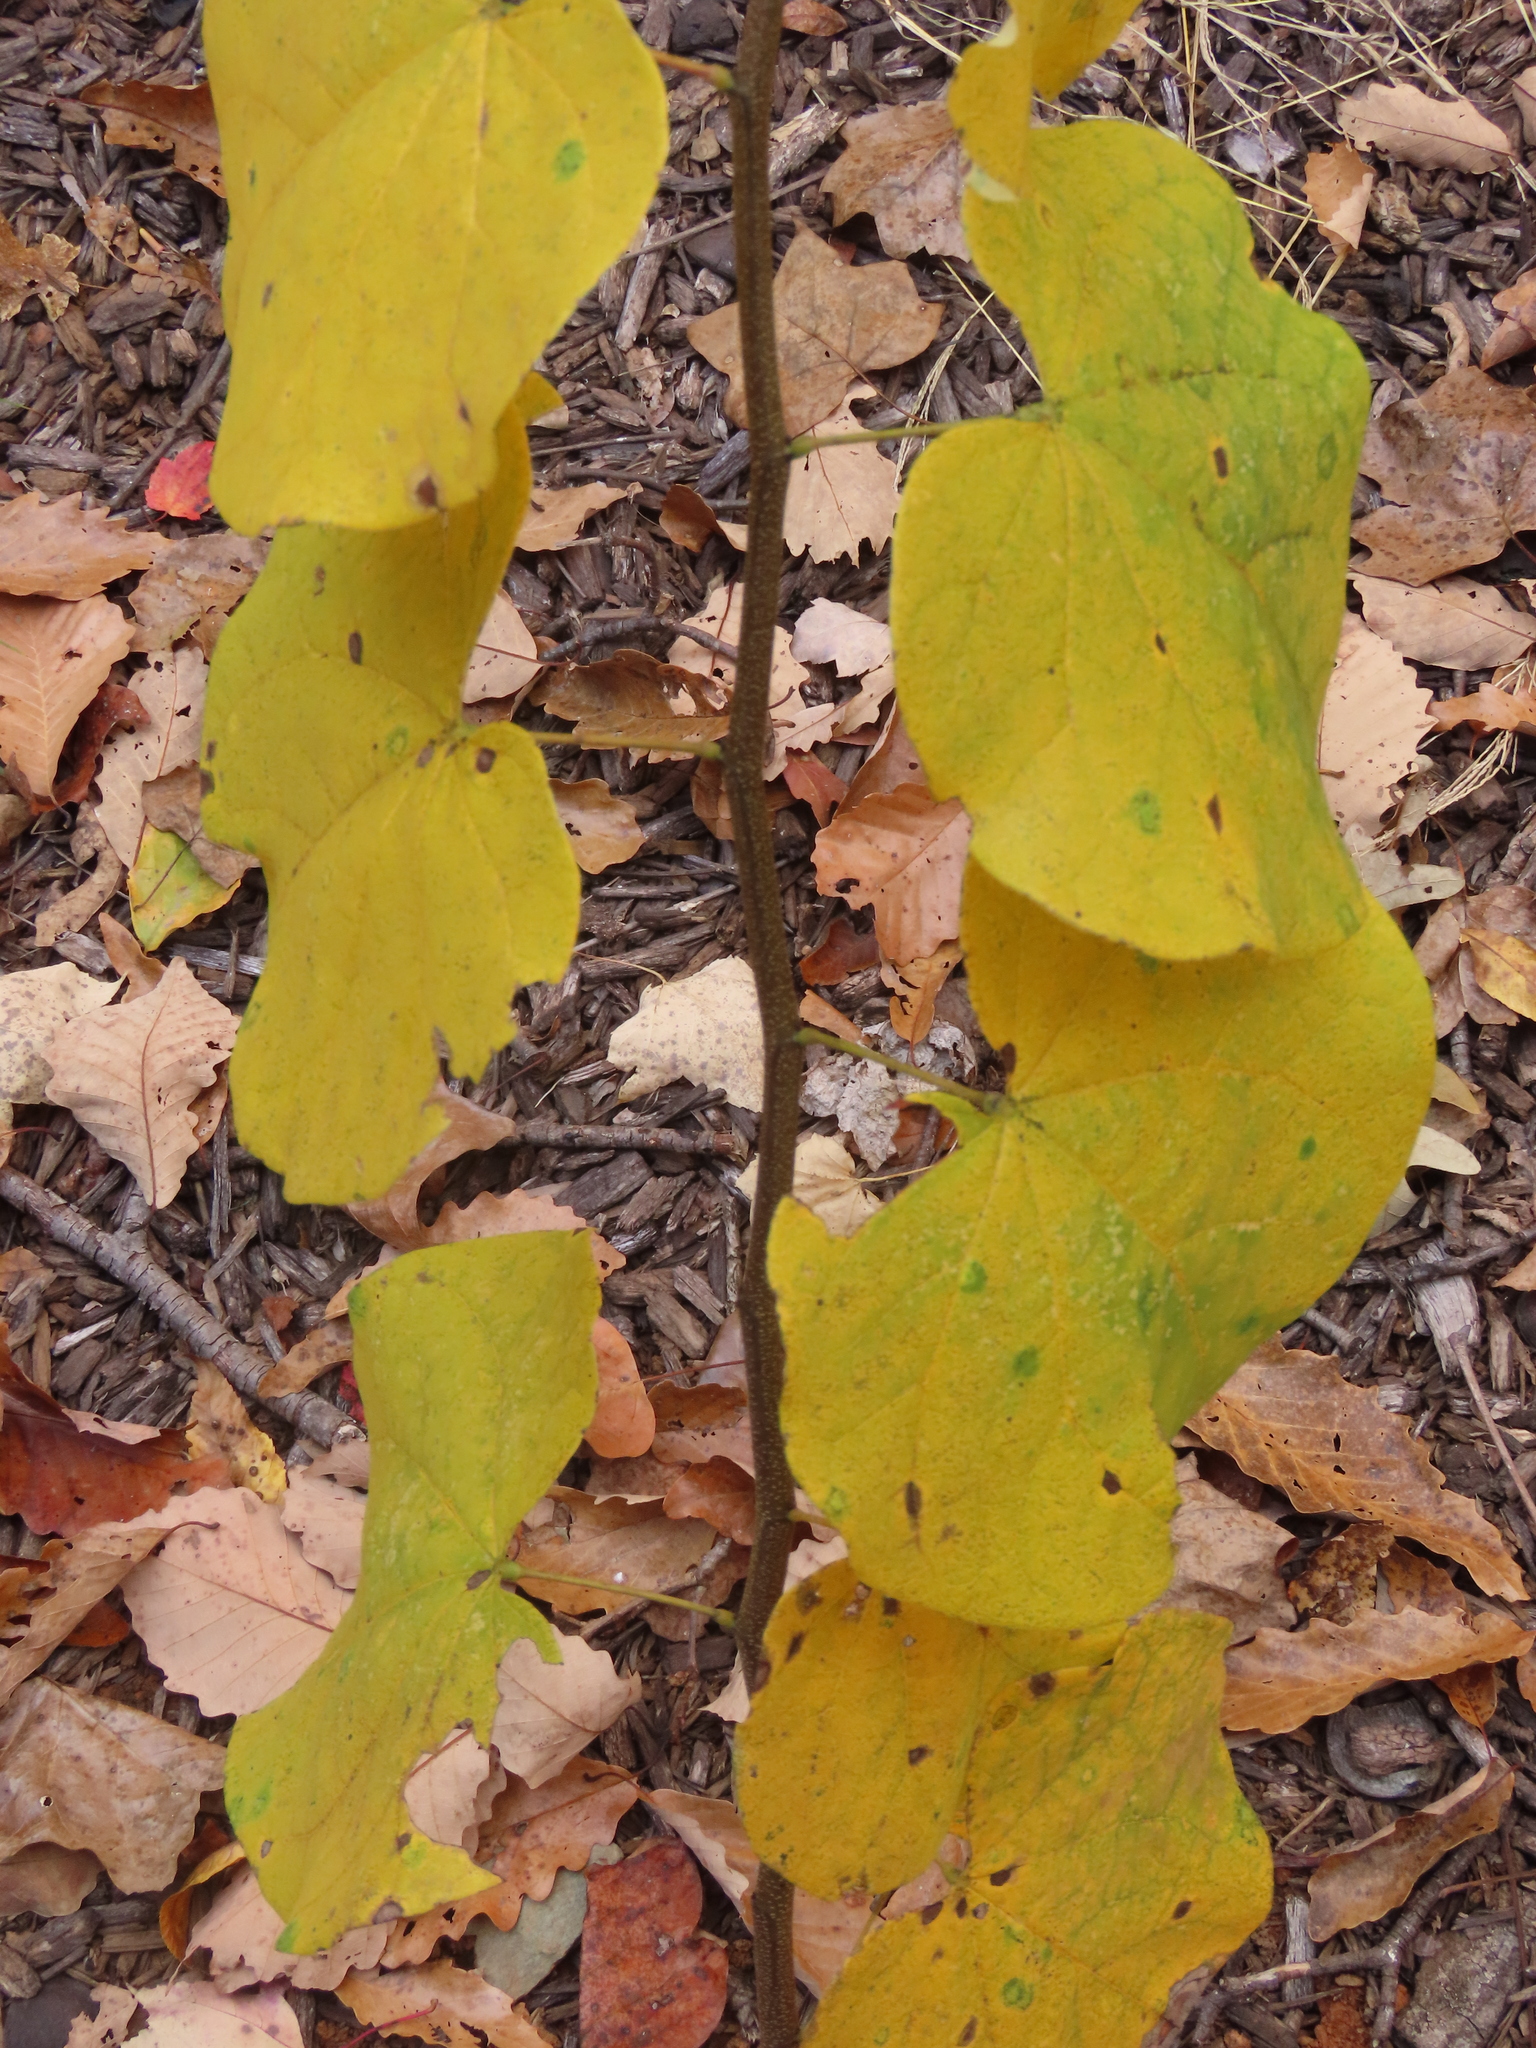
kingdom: Plantae
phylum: Tracheophyta
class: Magnoliopsida
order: Fabales
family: Fabaceae
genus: Cercis
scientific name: Cercis canadensis
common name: Eastern redbud
